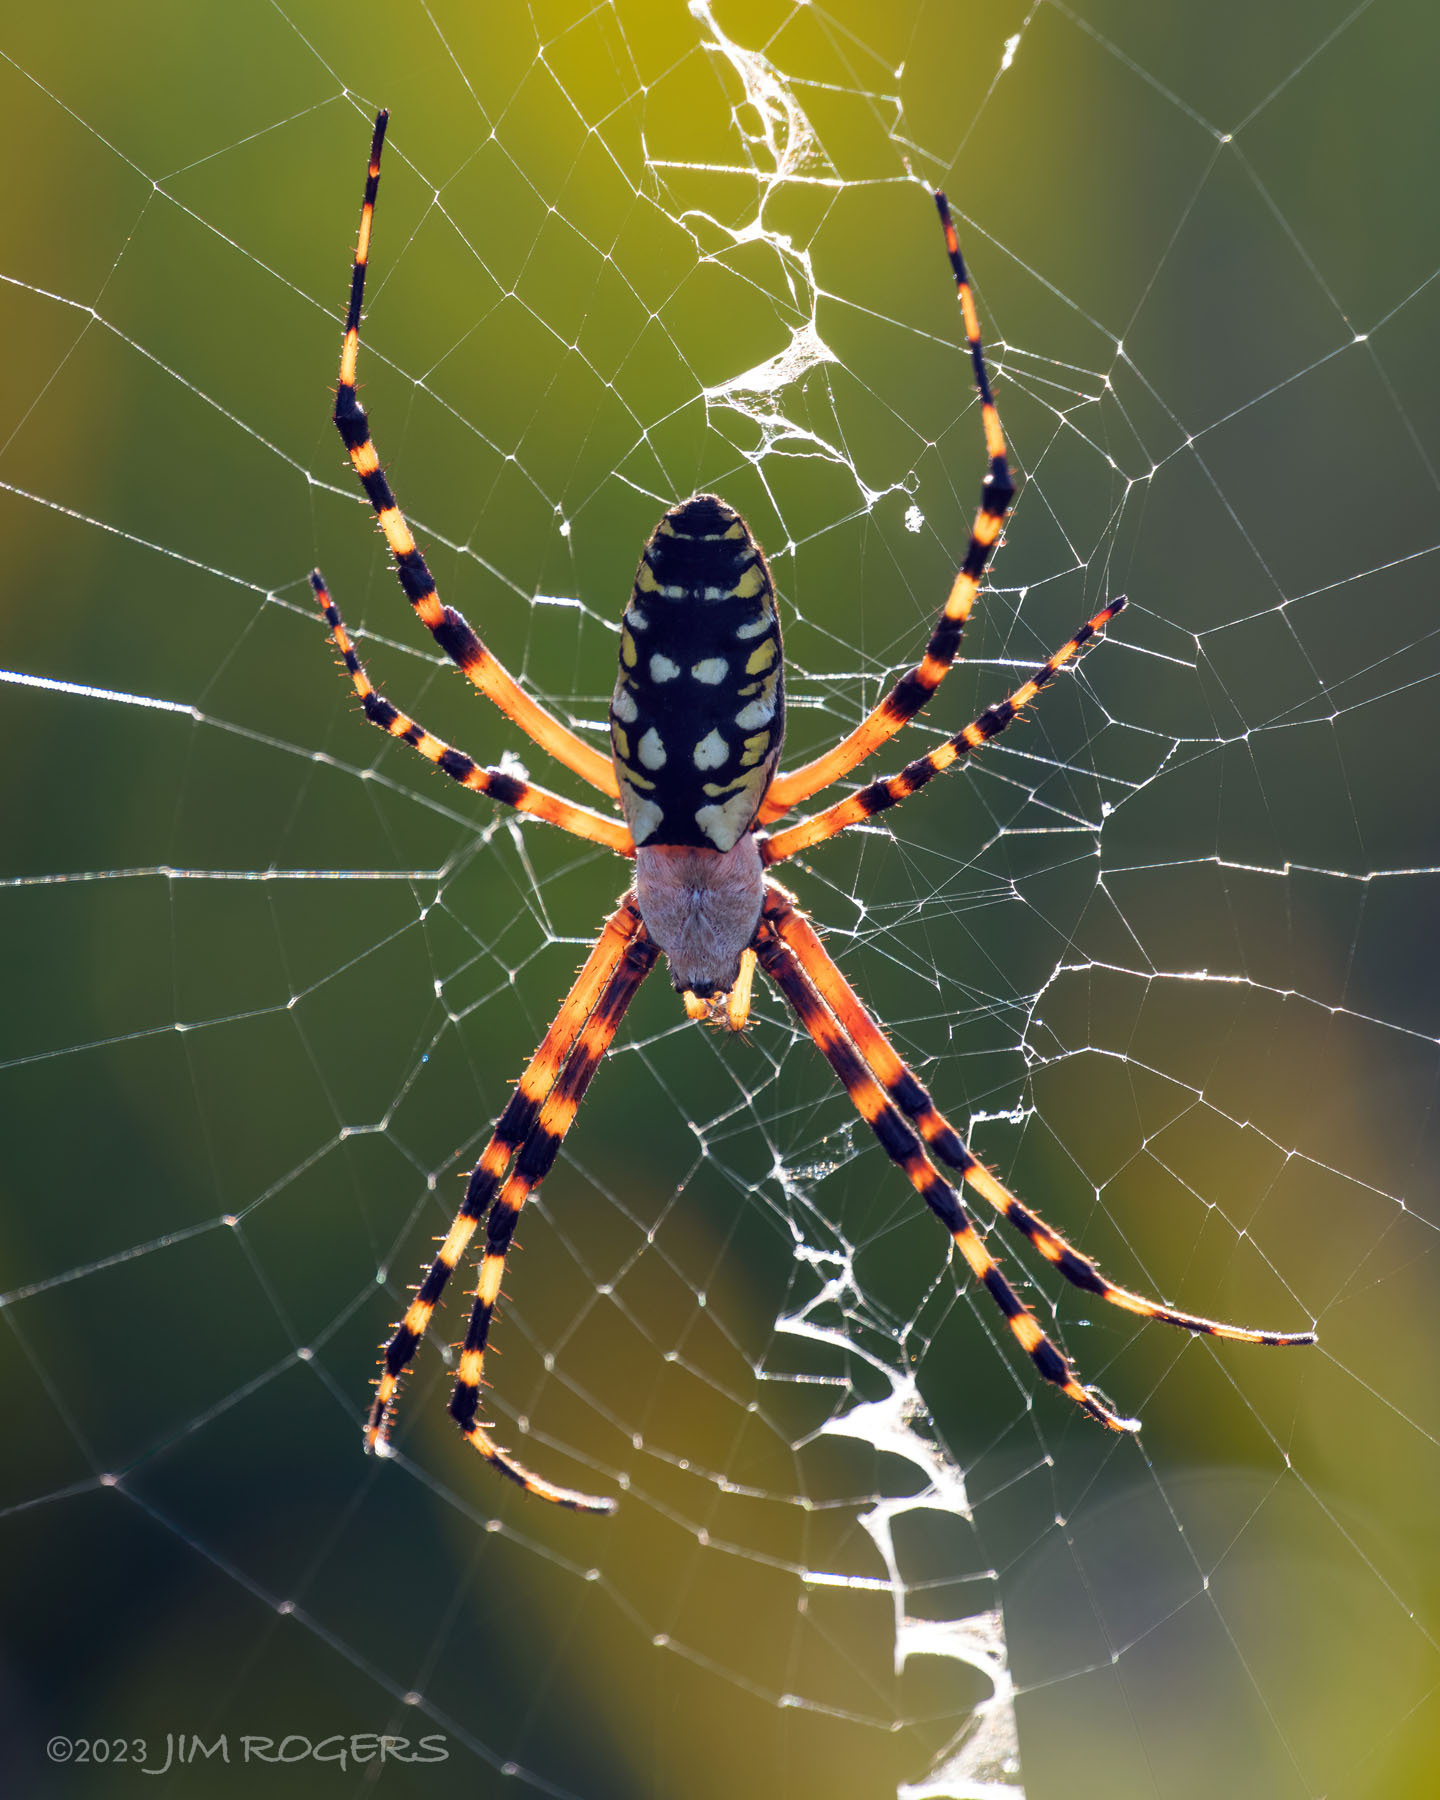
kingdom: Animalia
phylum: Arthropoda
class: Arachnida
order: Araneae
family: Araneidae
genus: Argiope
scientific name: Argiope aurantia
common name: Orb weavers
